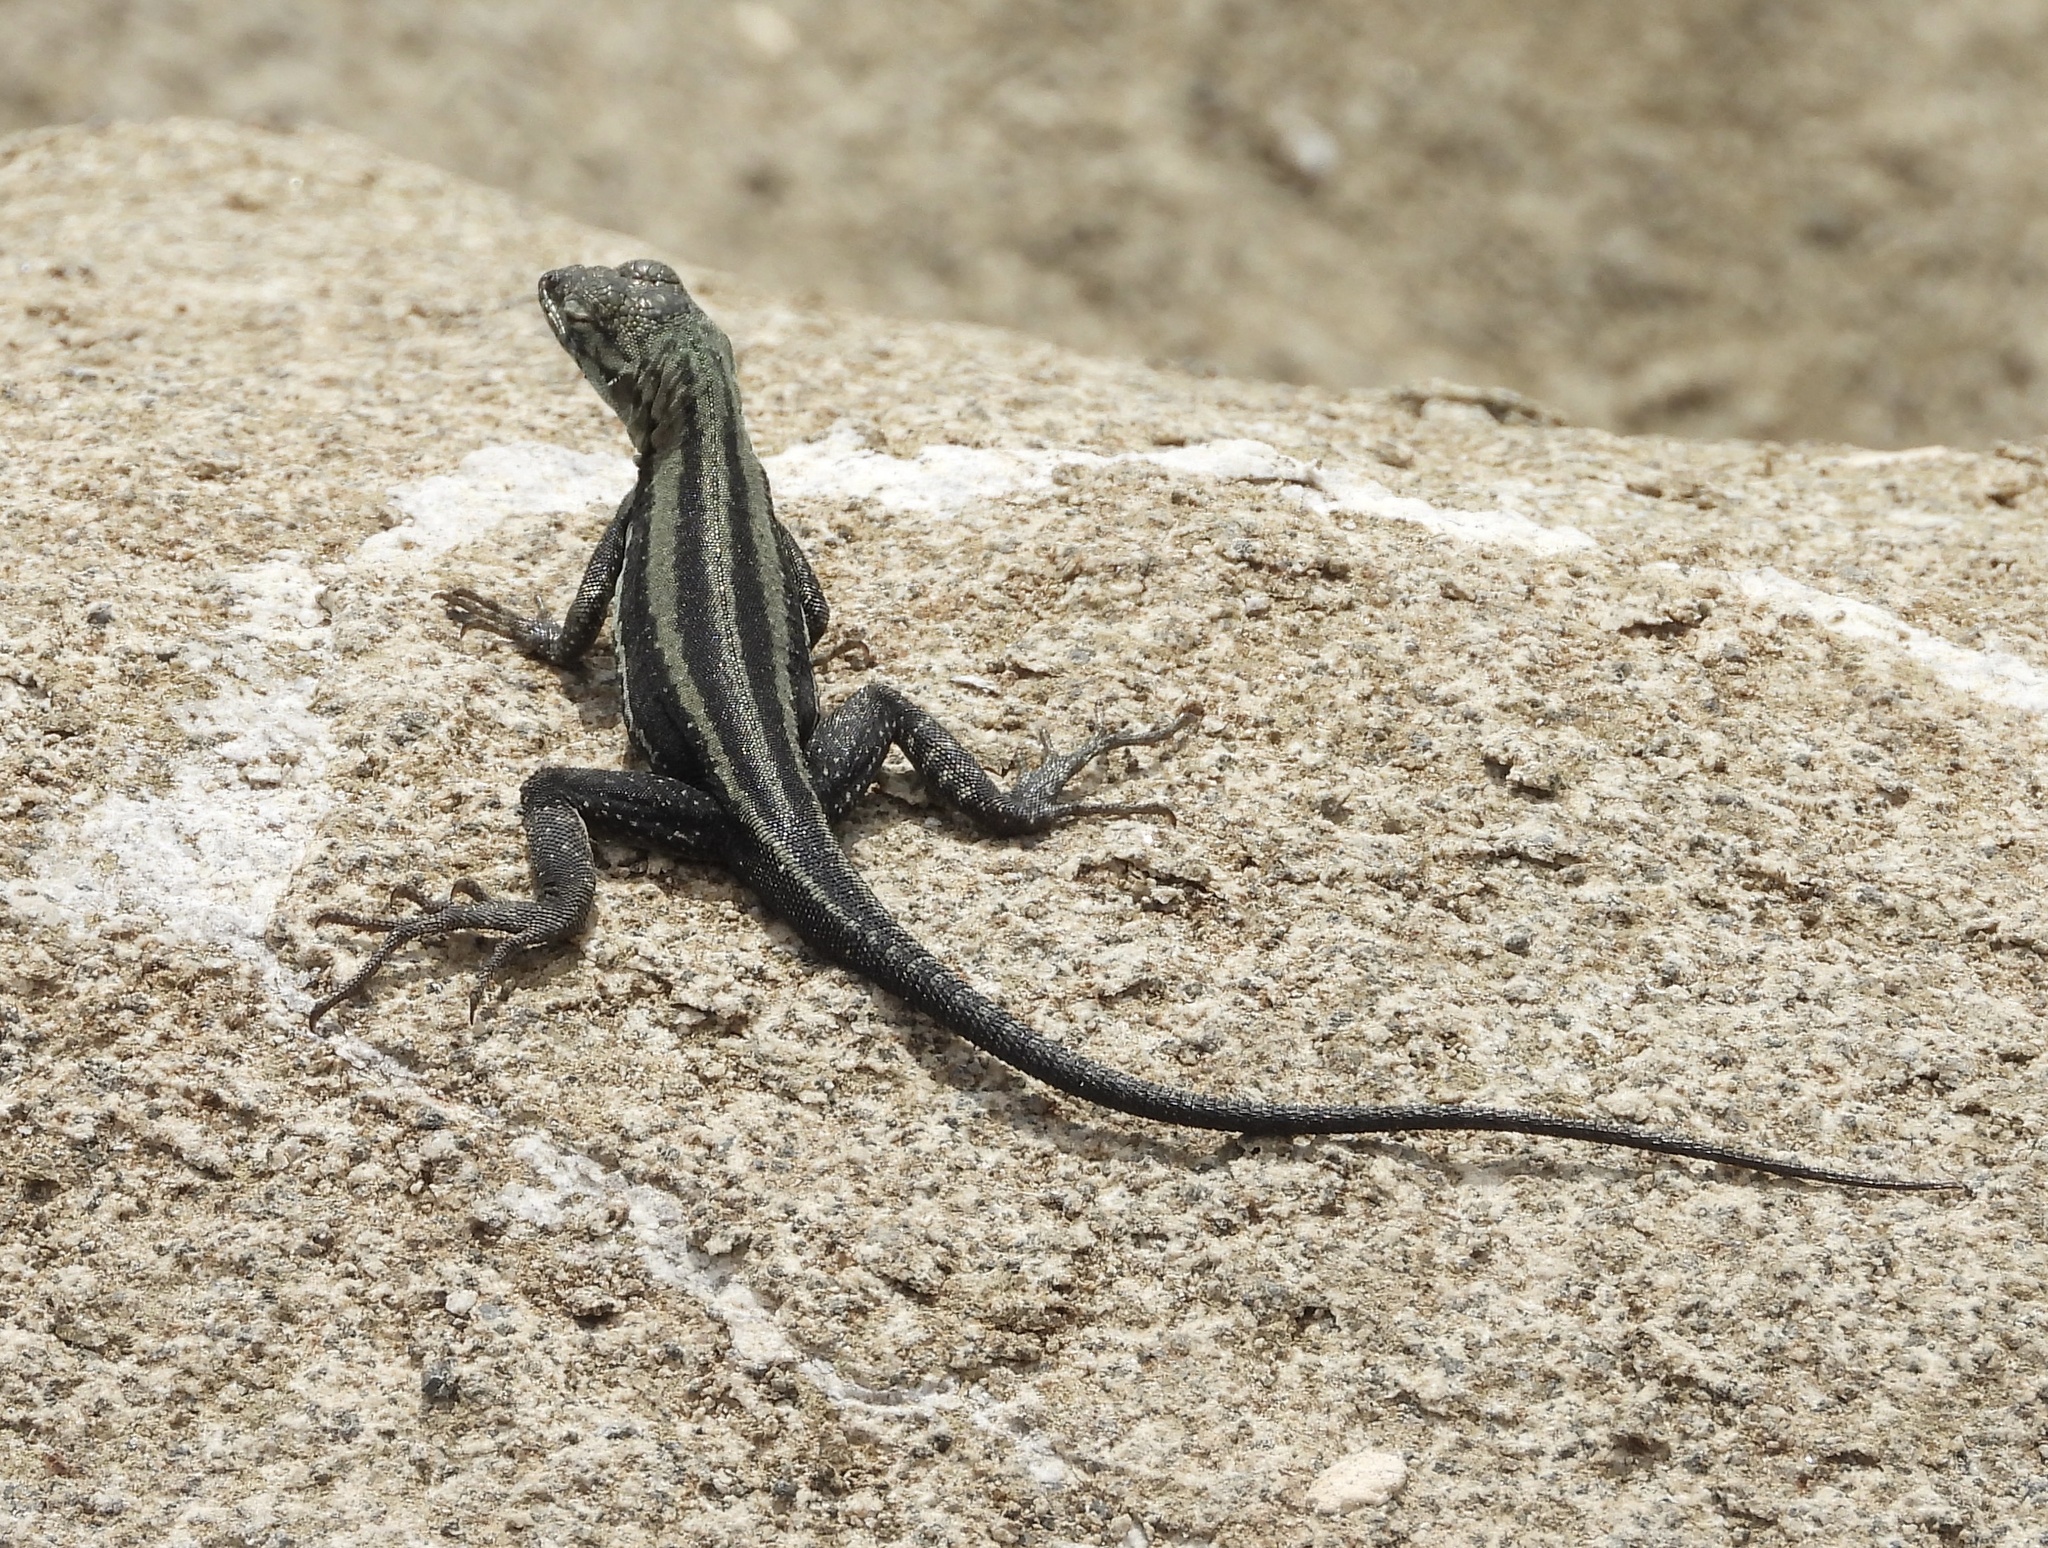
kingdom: Animalia
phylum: Chordata
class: Squamata
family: Tropiduridae
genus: Microlophus
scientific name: Microlophus quadrivittatus
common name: Four-banded pacific iguana
